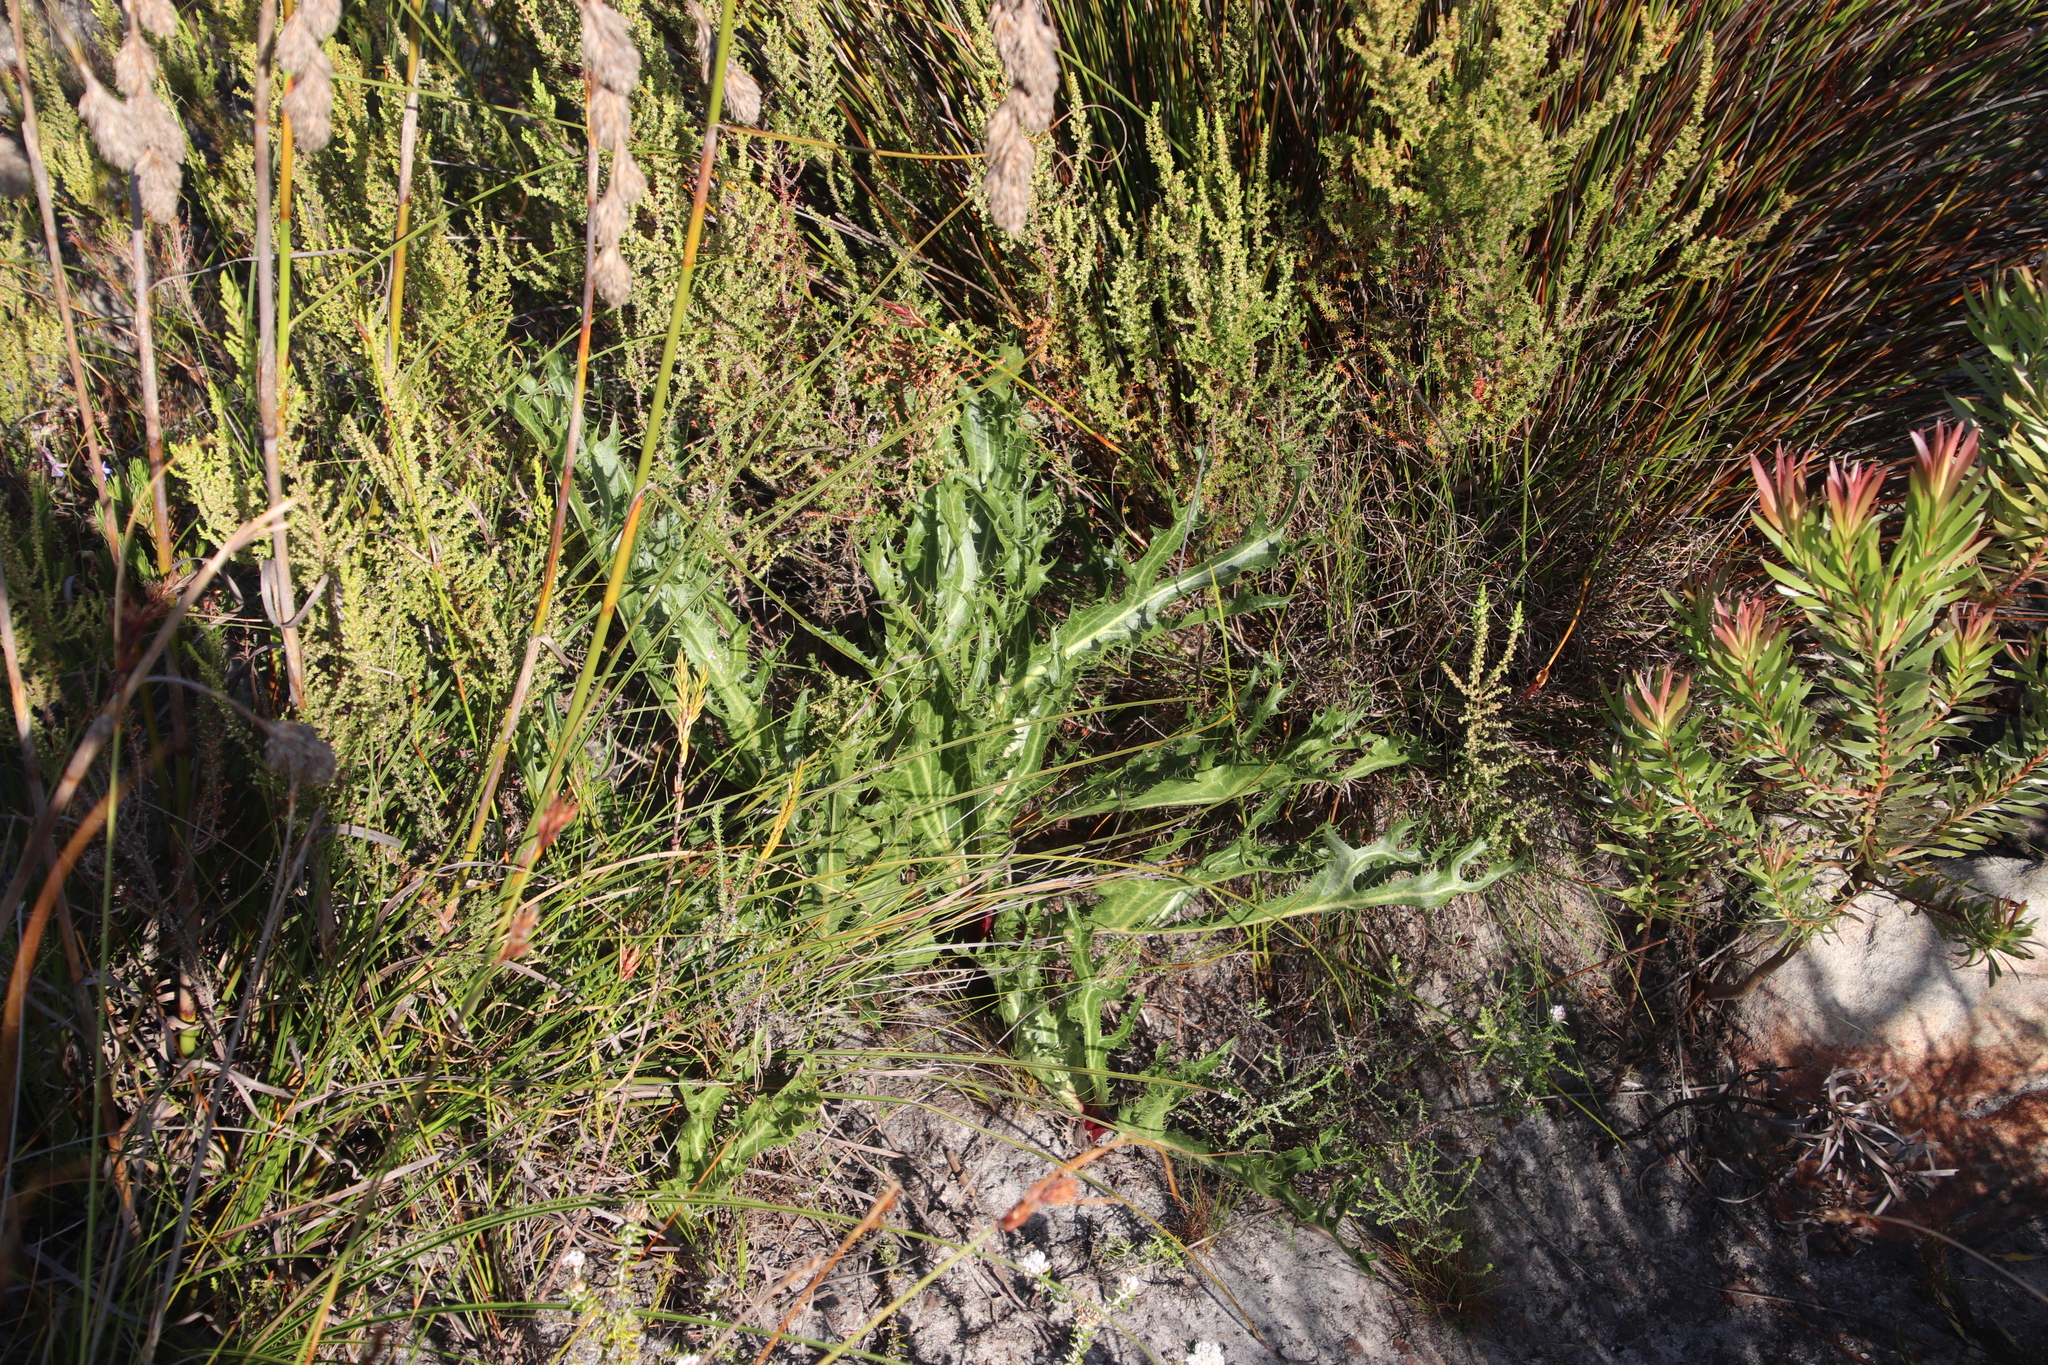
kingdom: Plantae
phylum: Tracheophyta
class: Magnoliopsida
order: Apiales
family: Apiaceae
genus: Lichtensteinia
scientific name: Lichtensteinia lacera
